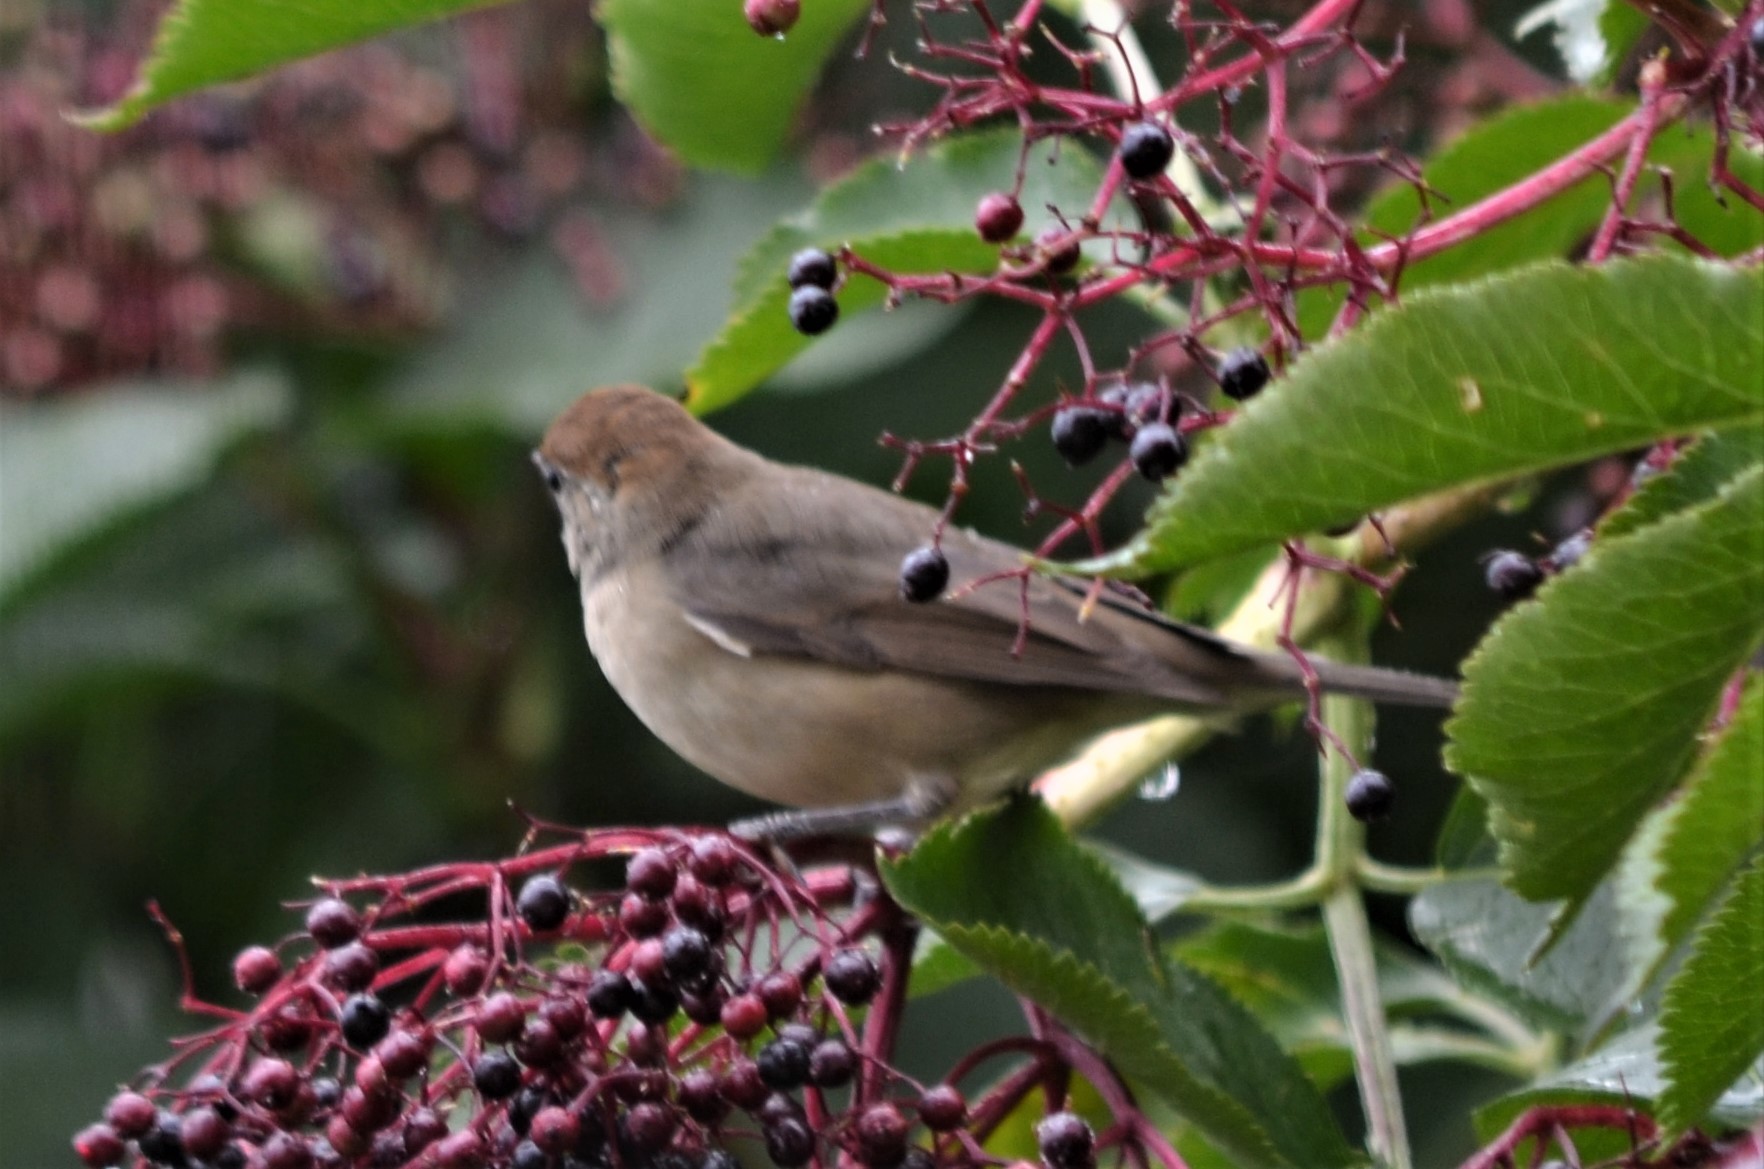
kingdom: Animalia
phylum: Chordata
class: Aves
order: Passeriformes
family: Sylviidae
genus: Sylvia
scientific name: Sylvia atricapilla
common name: Eurasian blackcap
